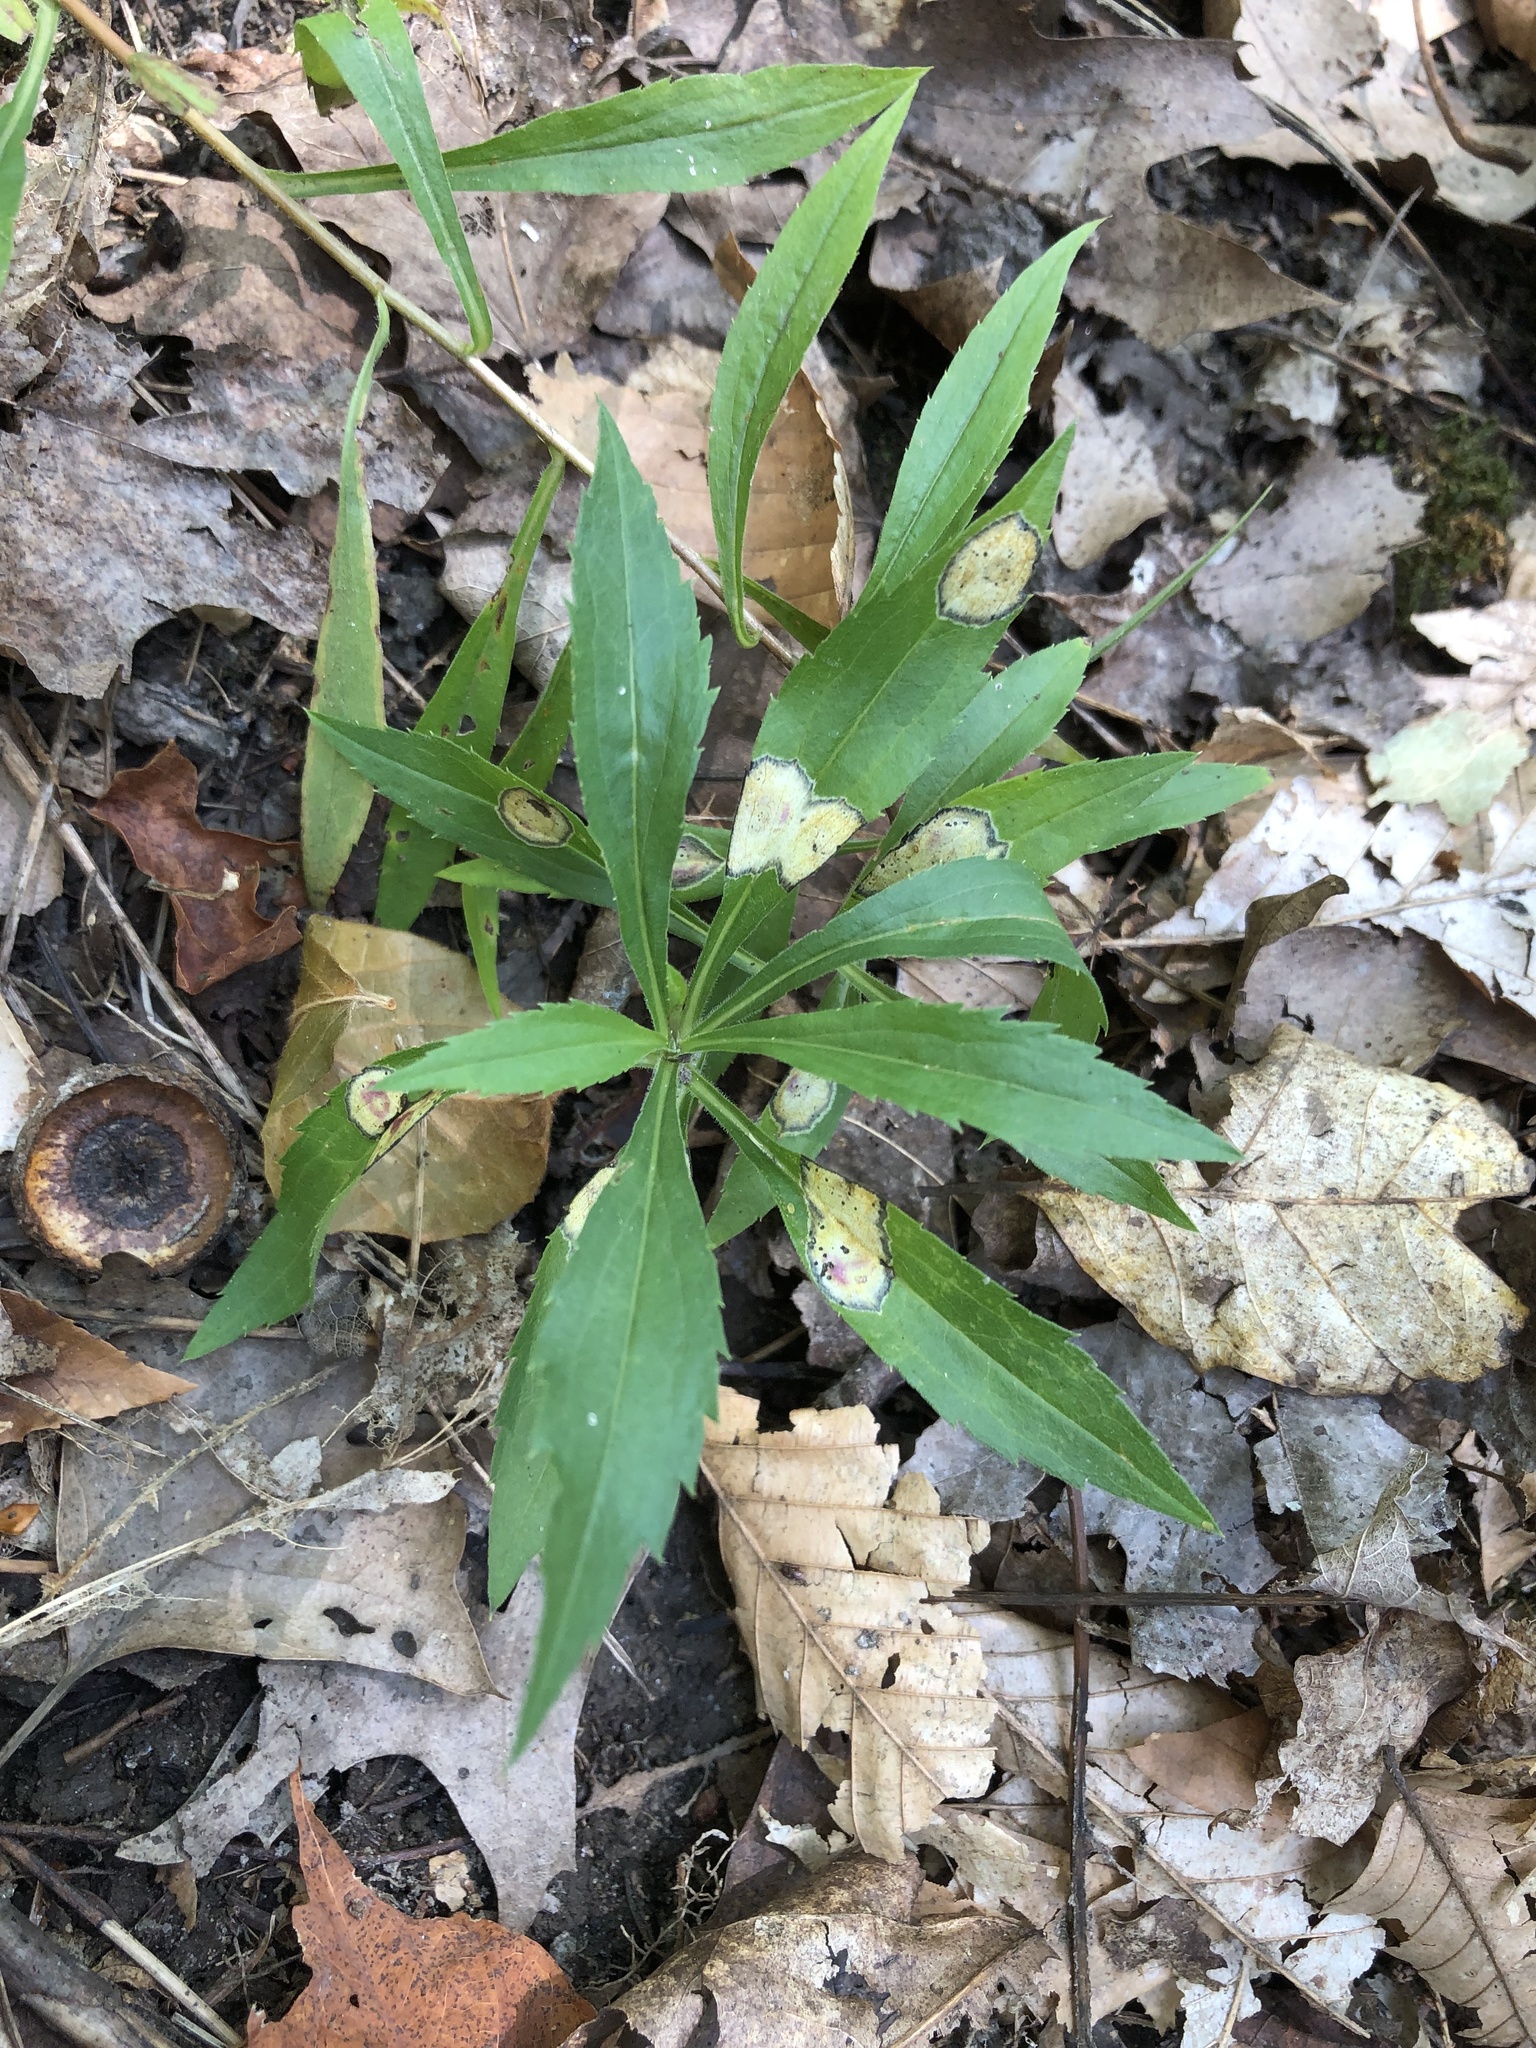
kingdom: Animalia
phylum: Arthropoda
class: Insecta
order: Diptera
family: Cecidomyiidae
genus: Asteromyia
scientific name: Asteromyia carbonifera
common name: Carbonifera goldenrod gall midge
